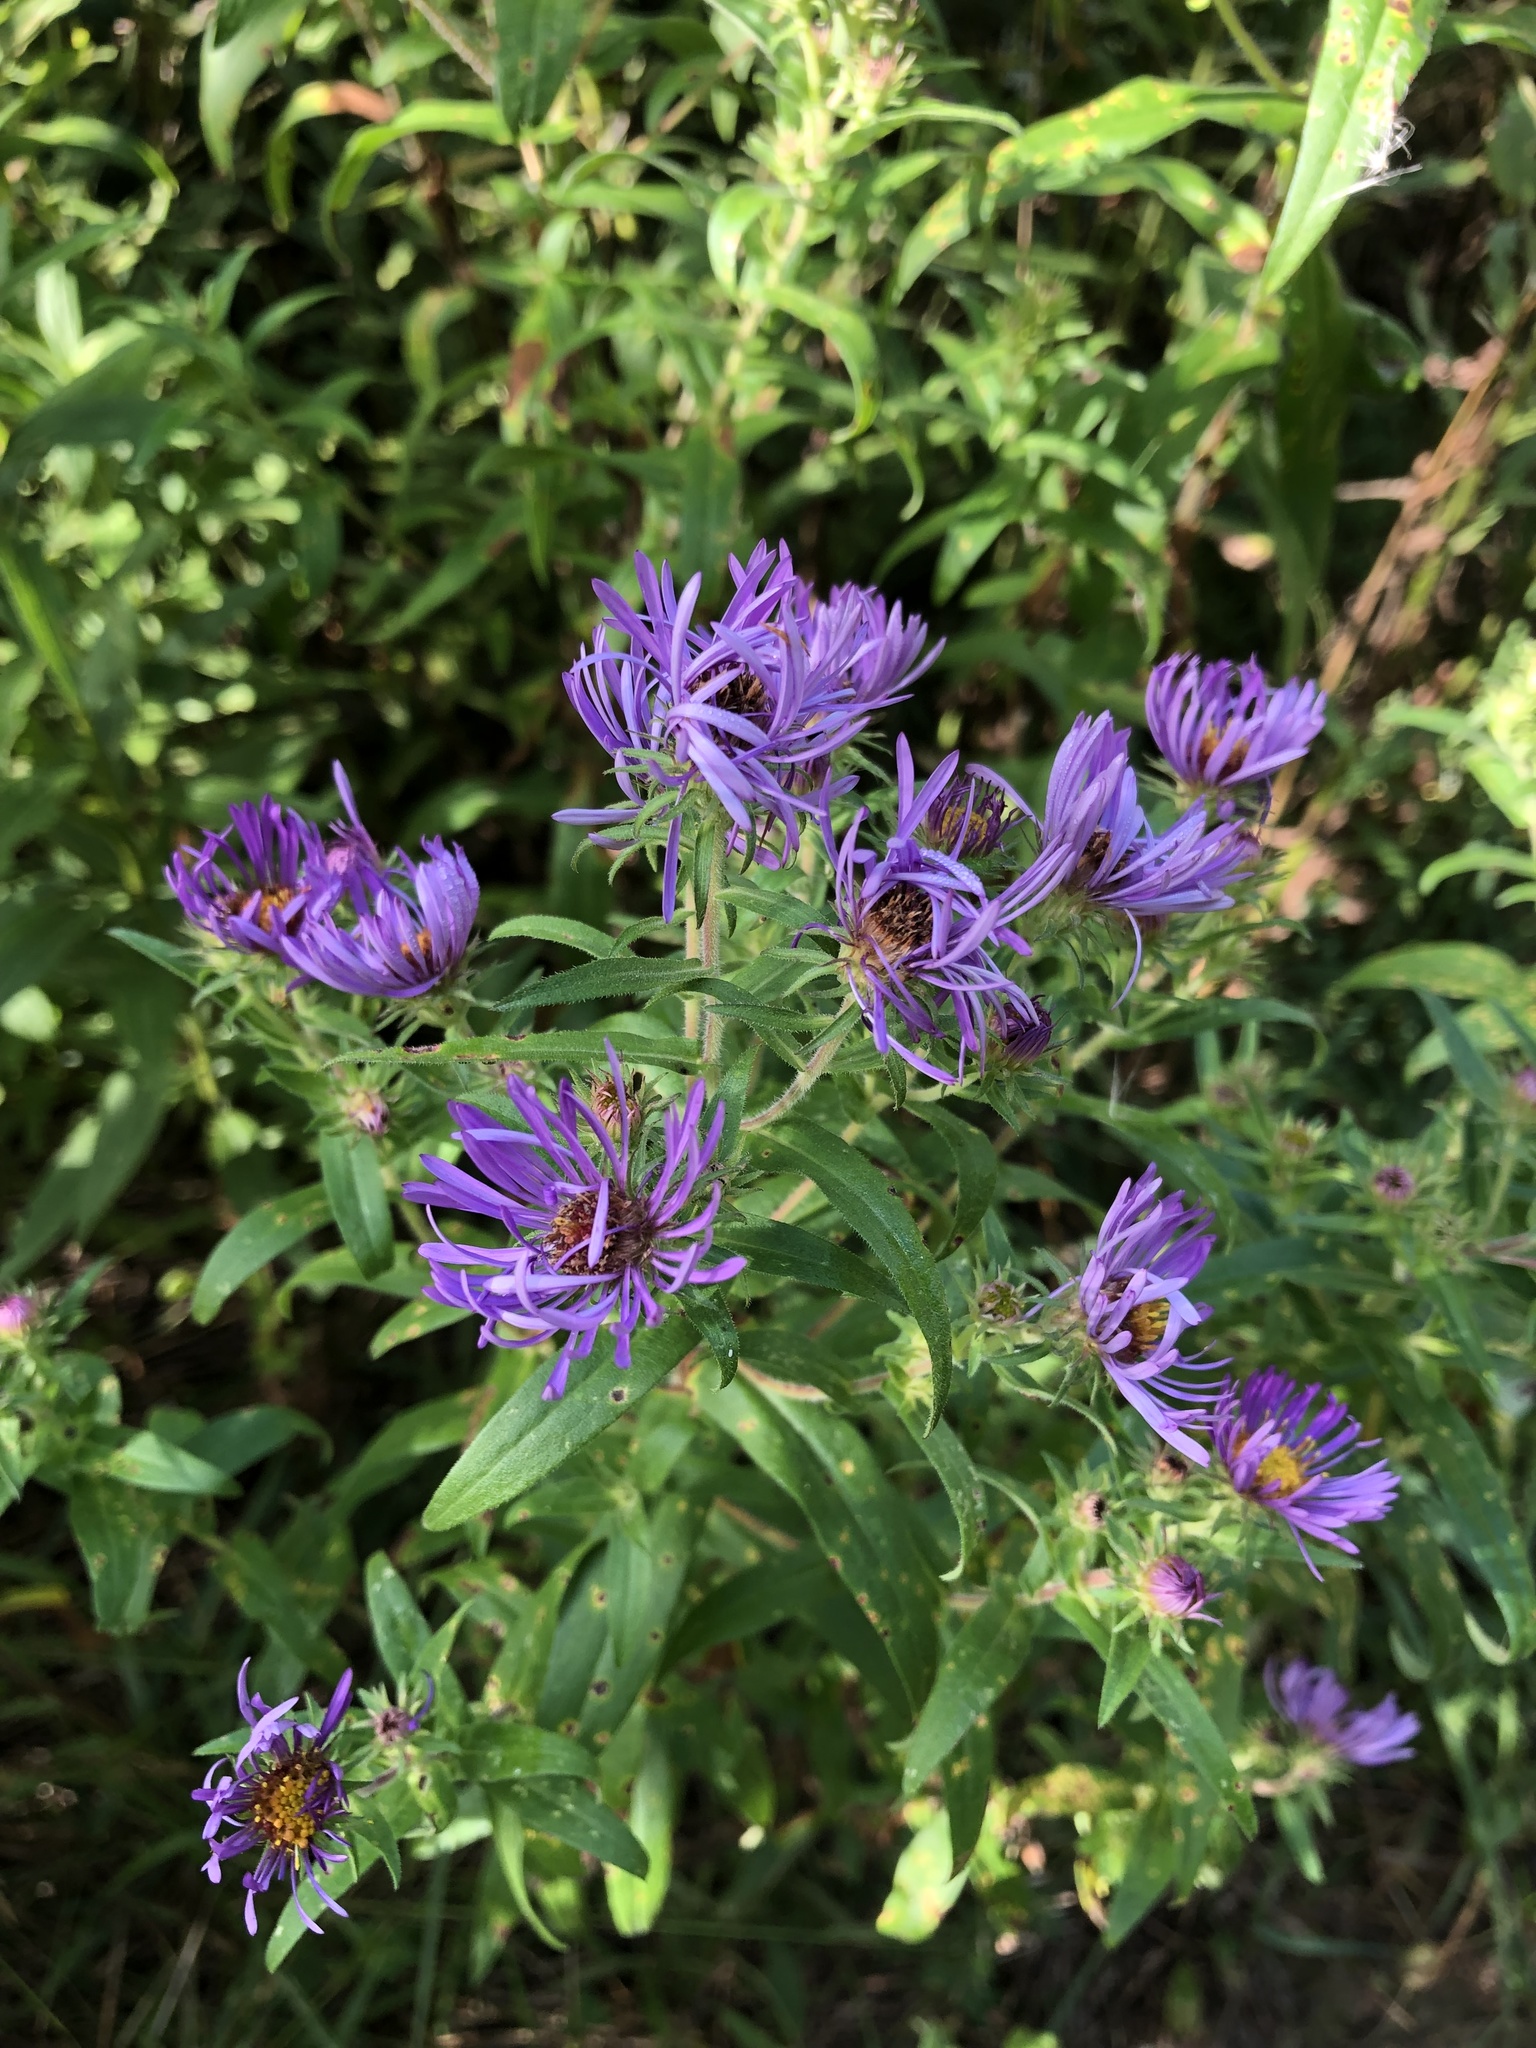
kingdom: Plantae
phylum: Tracheophyta
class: Magnoliopsida
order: Asterales
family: Asteraceae
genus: Symphyotrichum
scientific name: Symphyotrichum novae-angliae
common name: Michaelmas daisy
